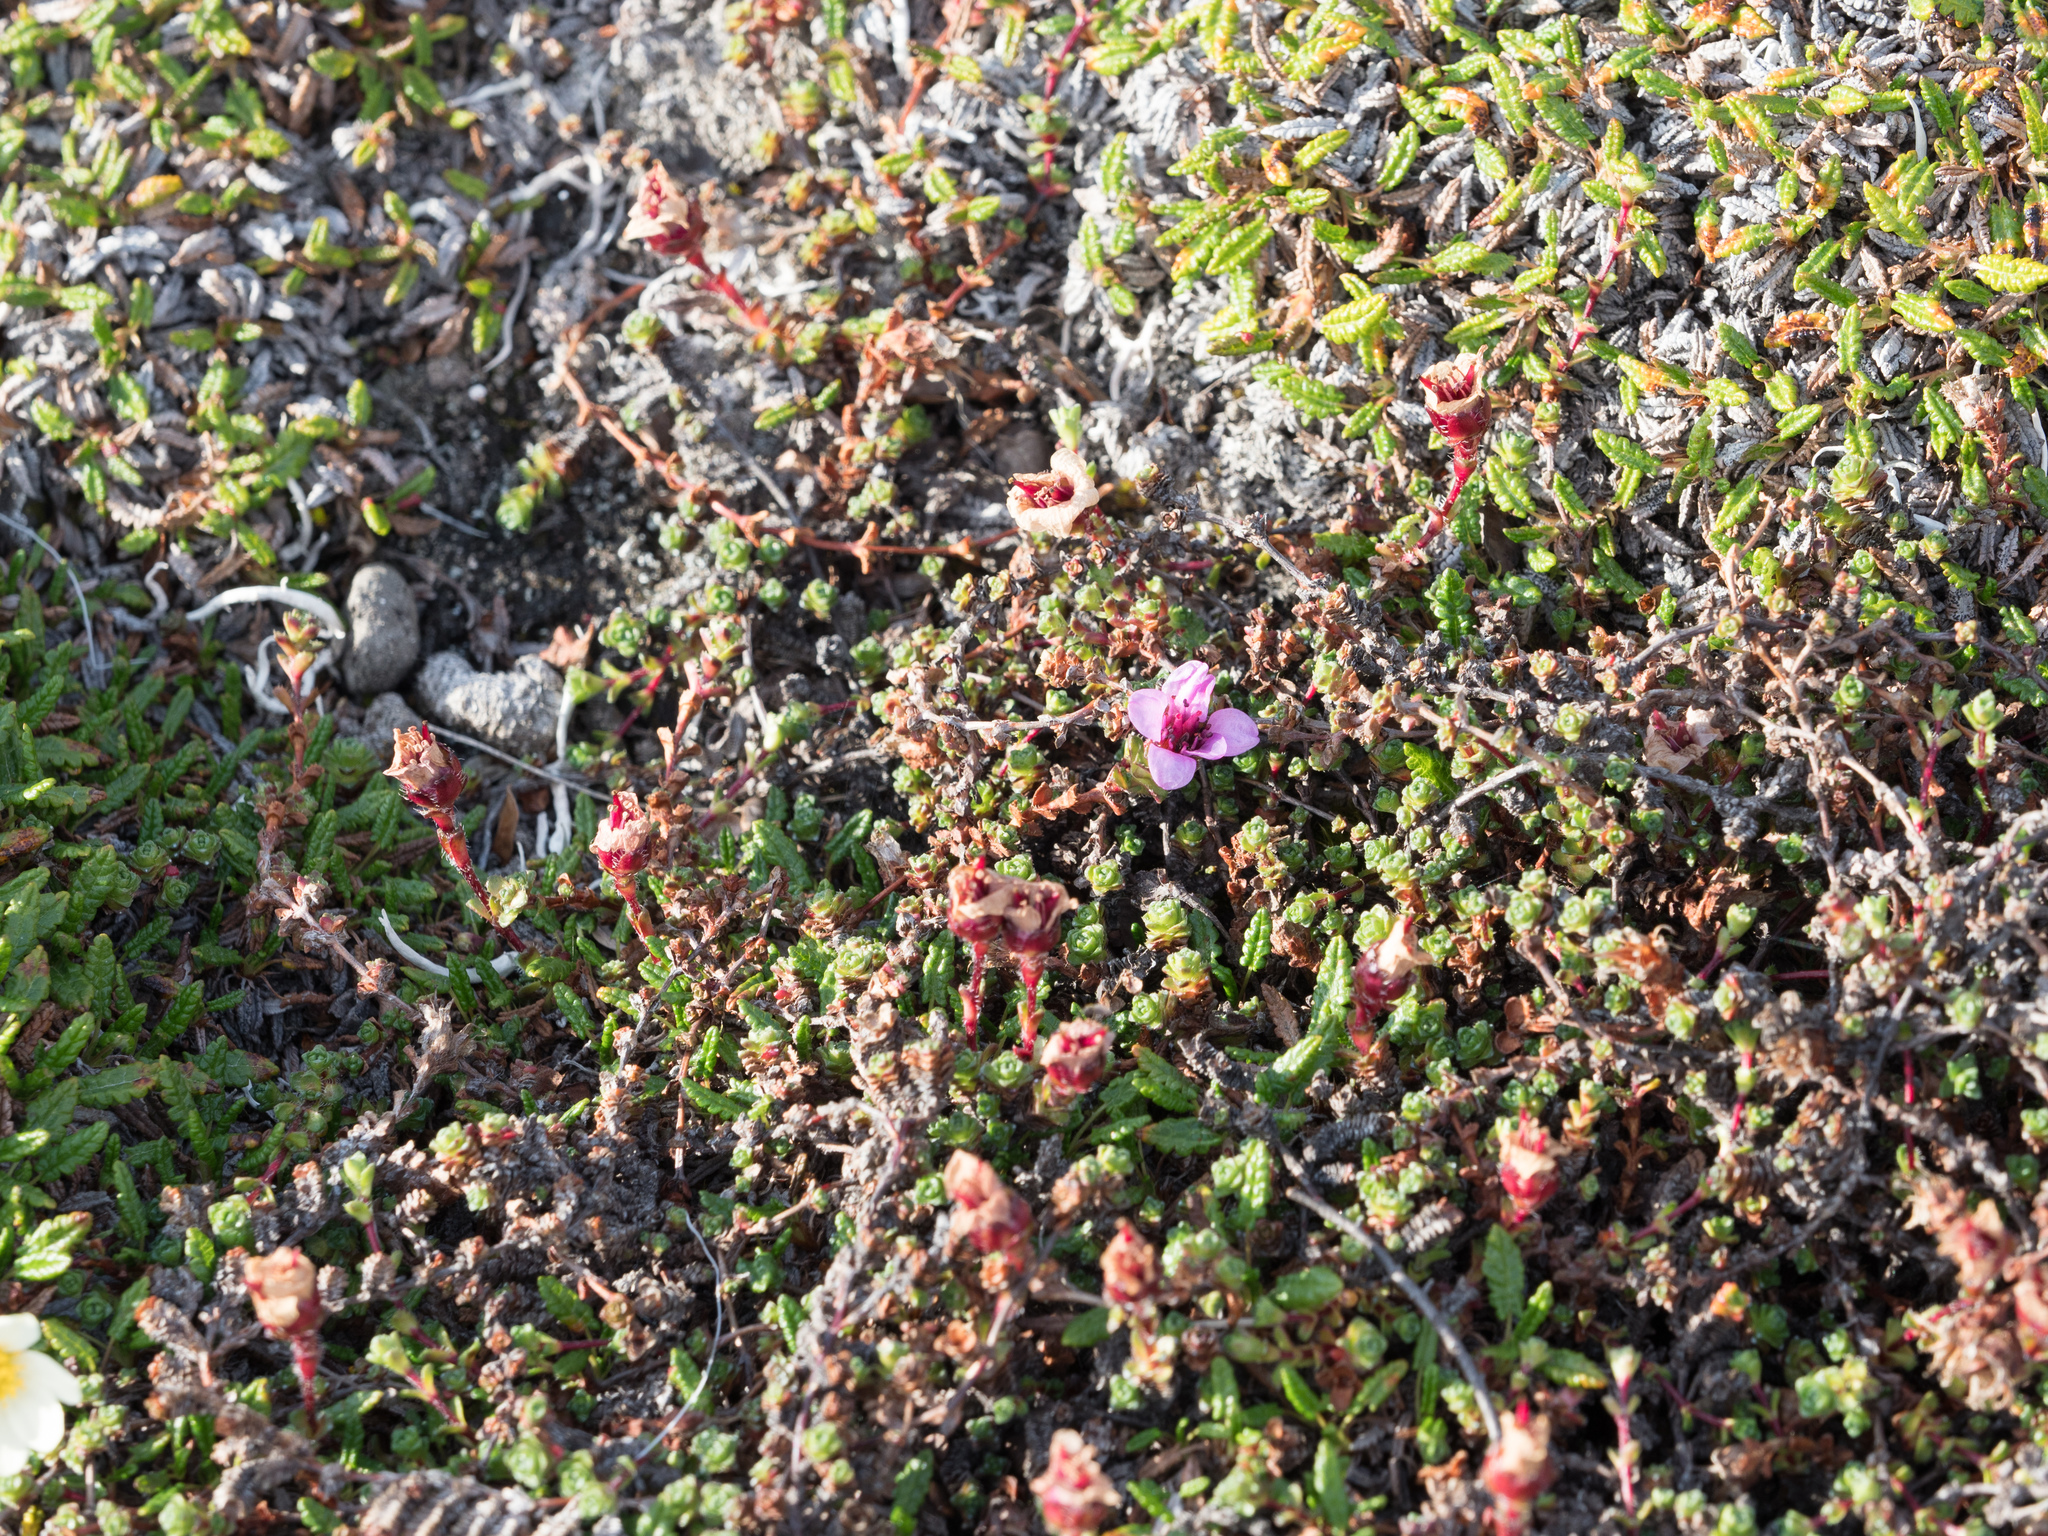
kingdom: Plantae
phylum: Tracheophyta
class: Magnoliopsida
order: Saxifragales
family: Saxifragaceae
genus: Saxifraga
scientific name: Saxifraga oppositifolia
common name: Purple saxifrage
